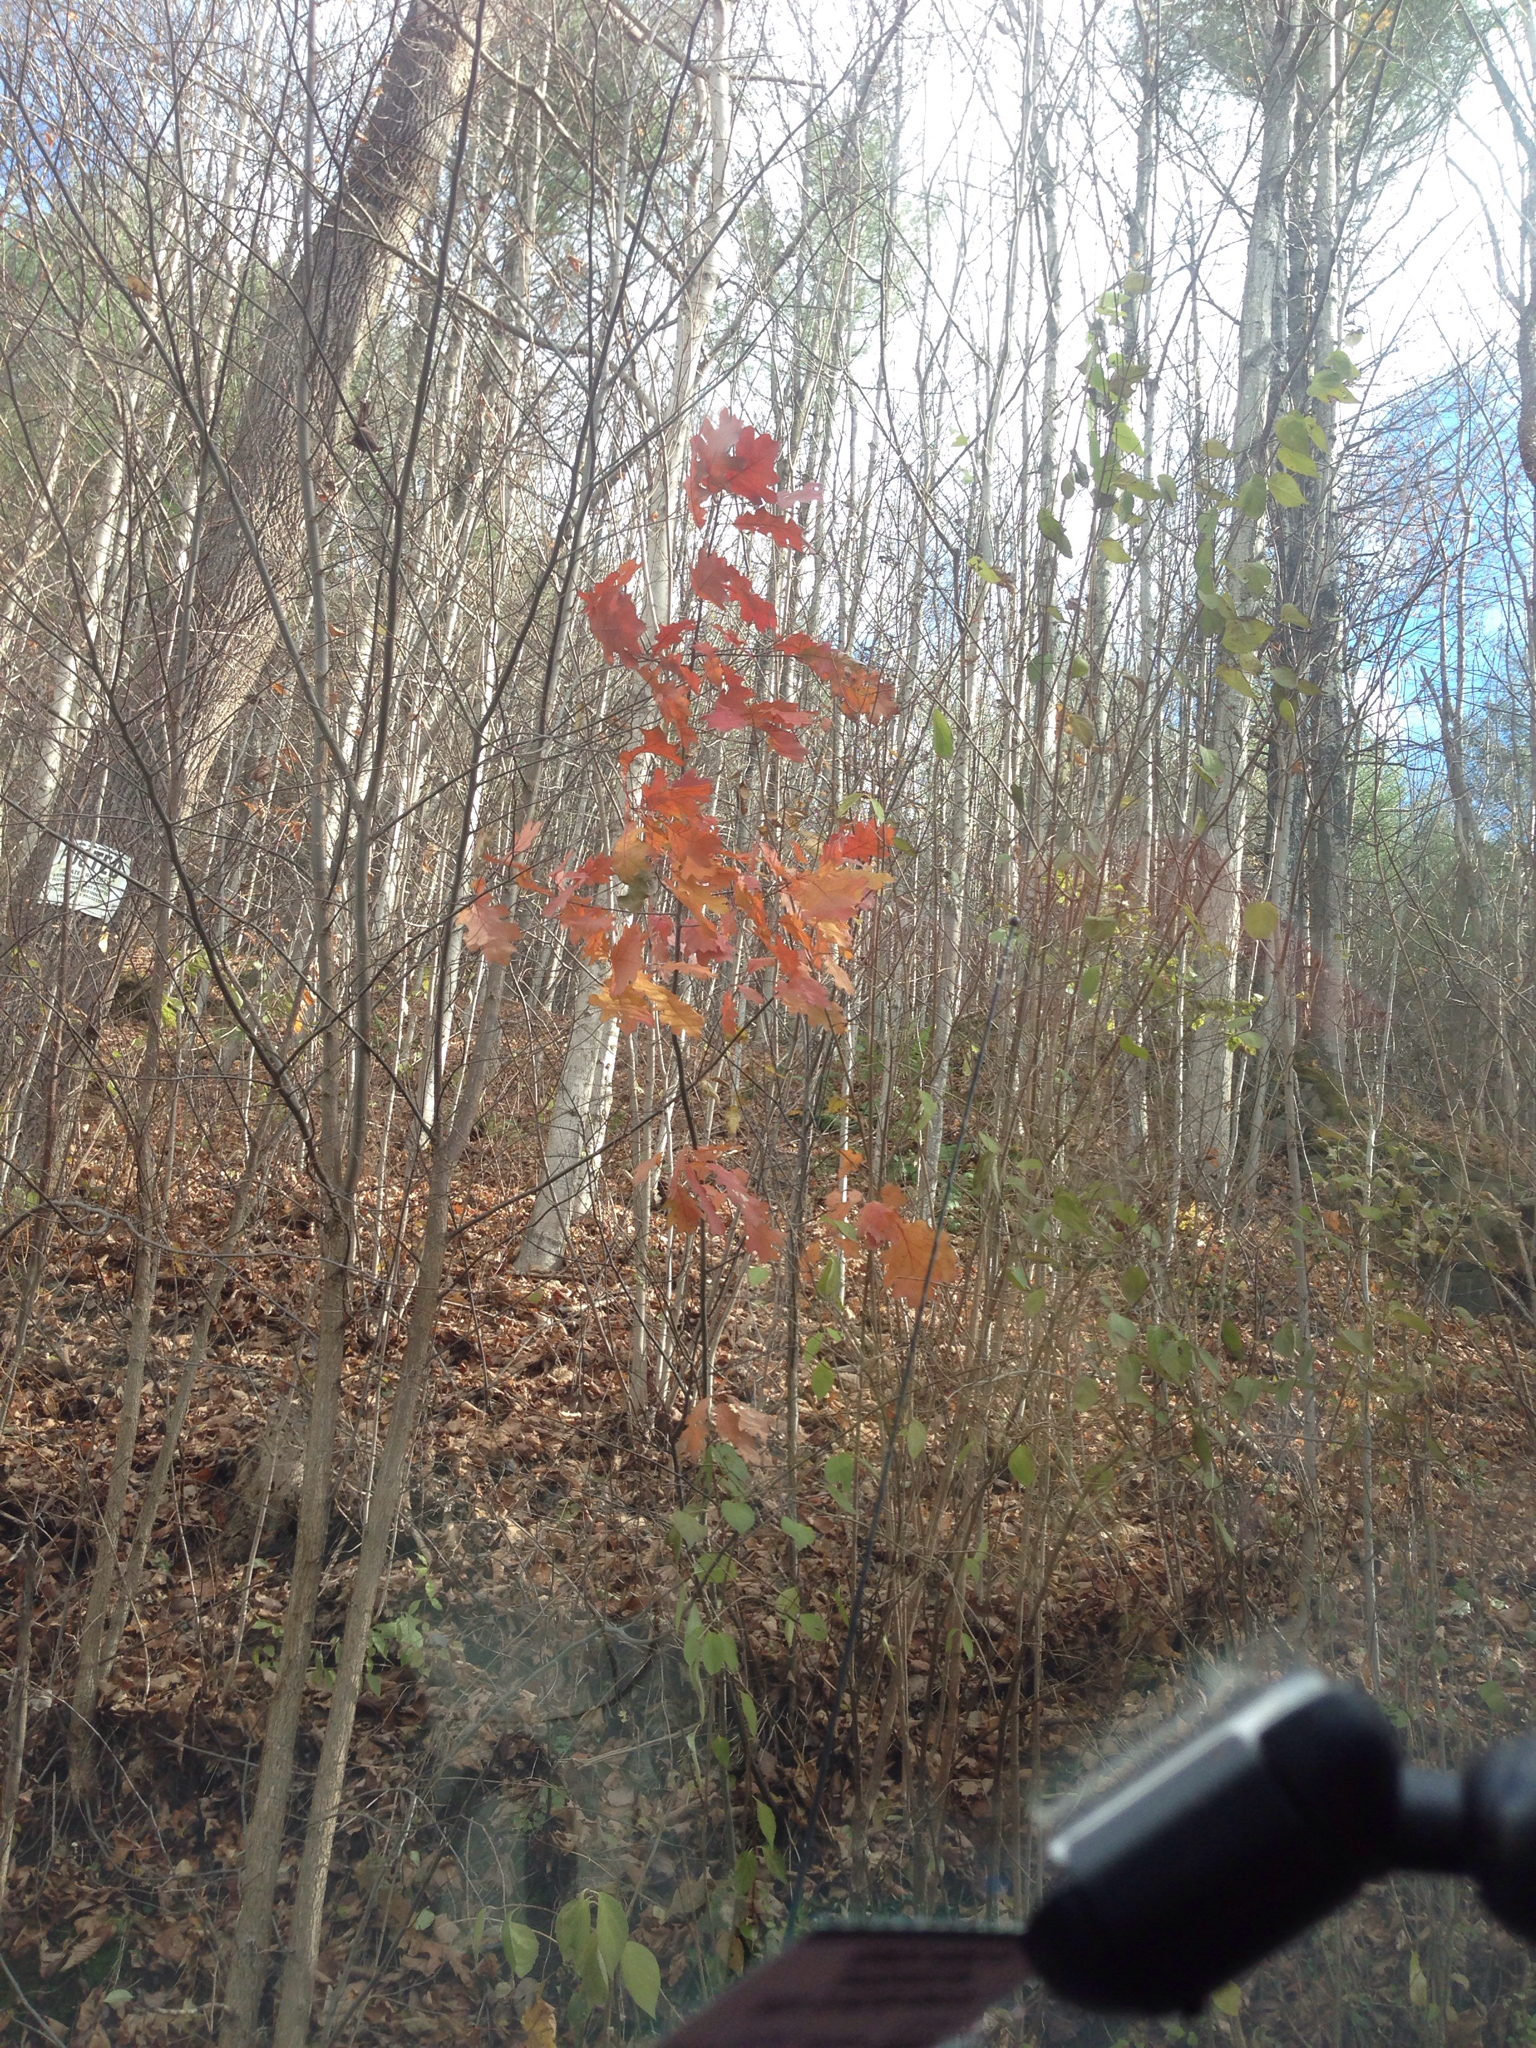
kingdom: Plantae
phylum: Tracheophyta
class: Magnoliopsida
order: Fagales
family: Fagaceae
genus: Quercus
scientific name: Quercus rubra
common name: Red oak
